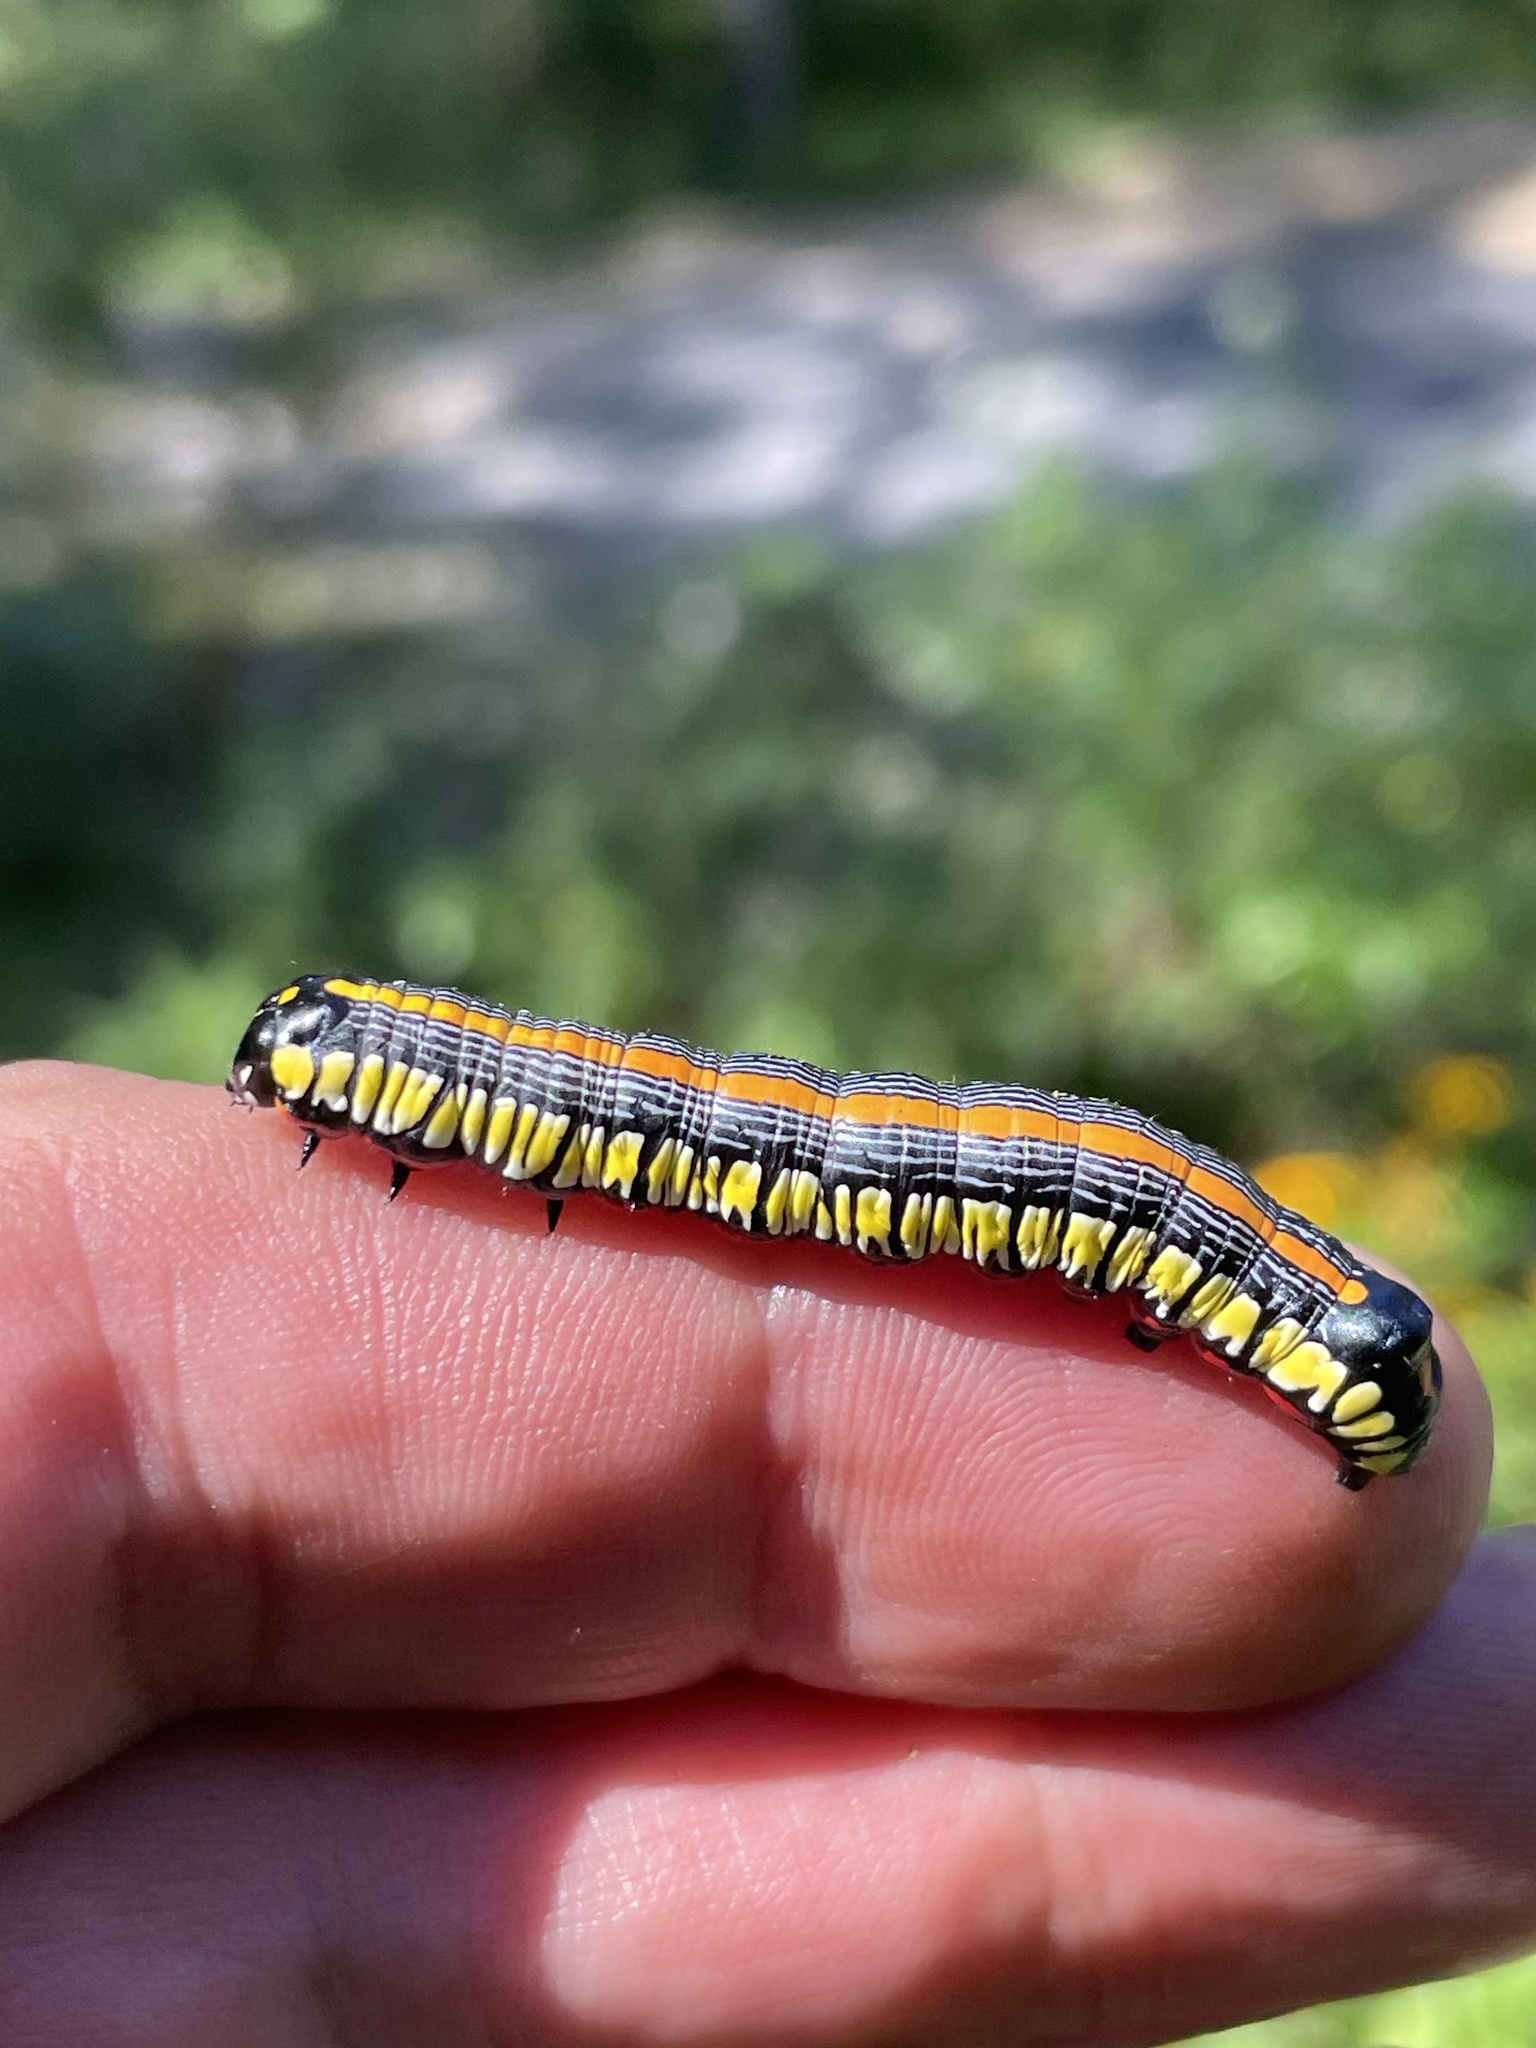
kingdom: Animalia
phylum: Arthropoda
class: Insecta
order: Lepidoptera
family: Noctuidae
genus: Cucullia
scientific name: Cucullia convexipennis
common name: Brown-hooded owlet
